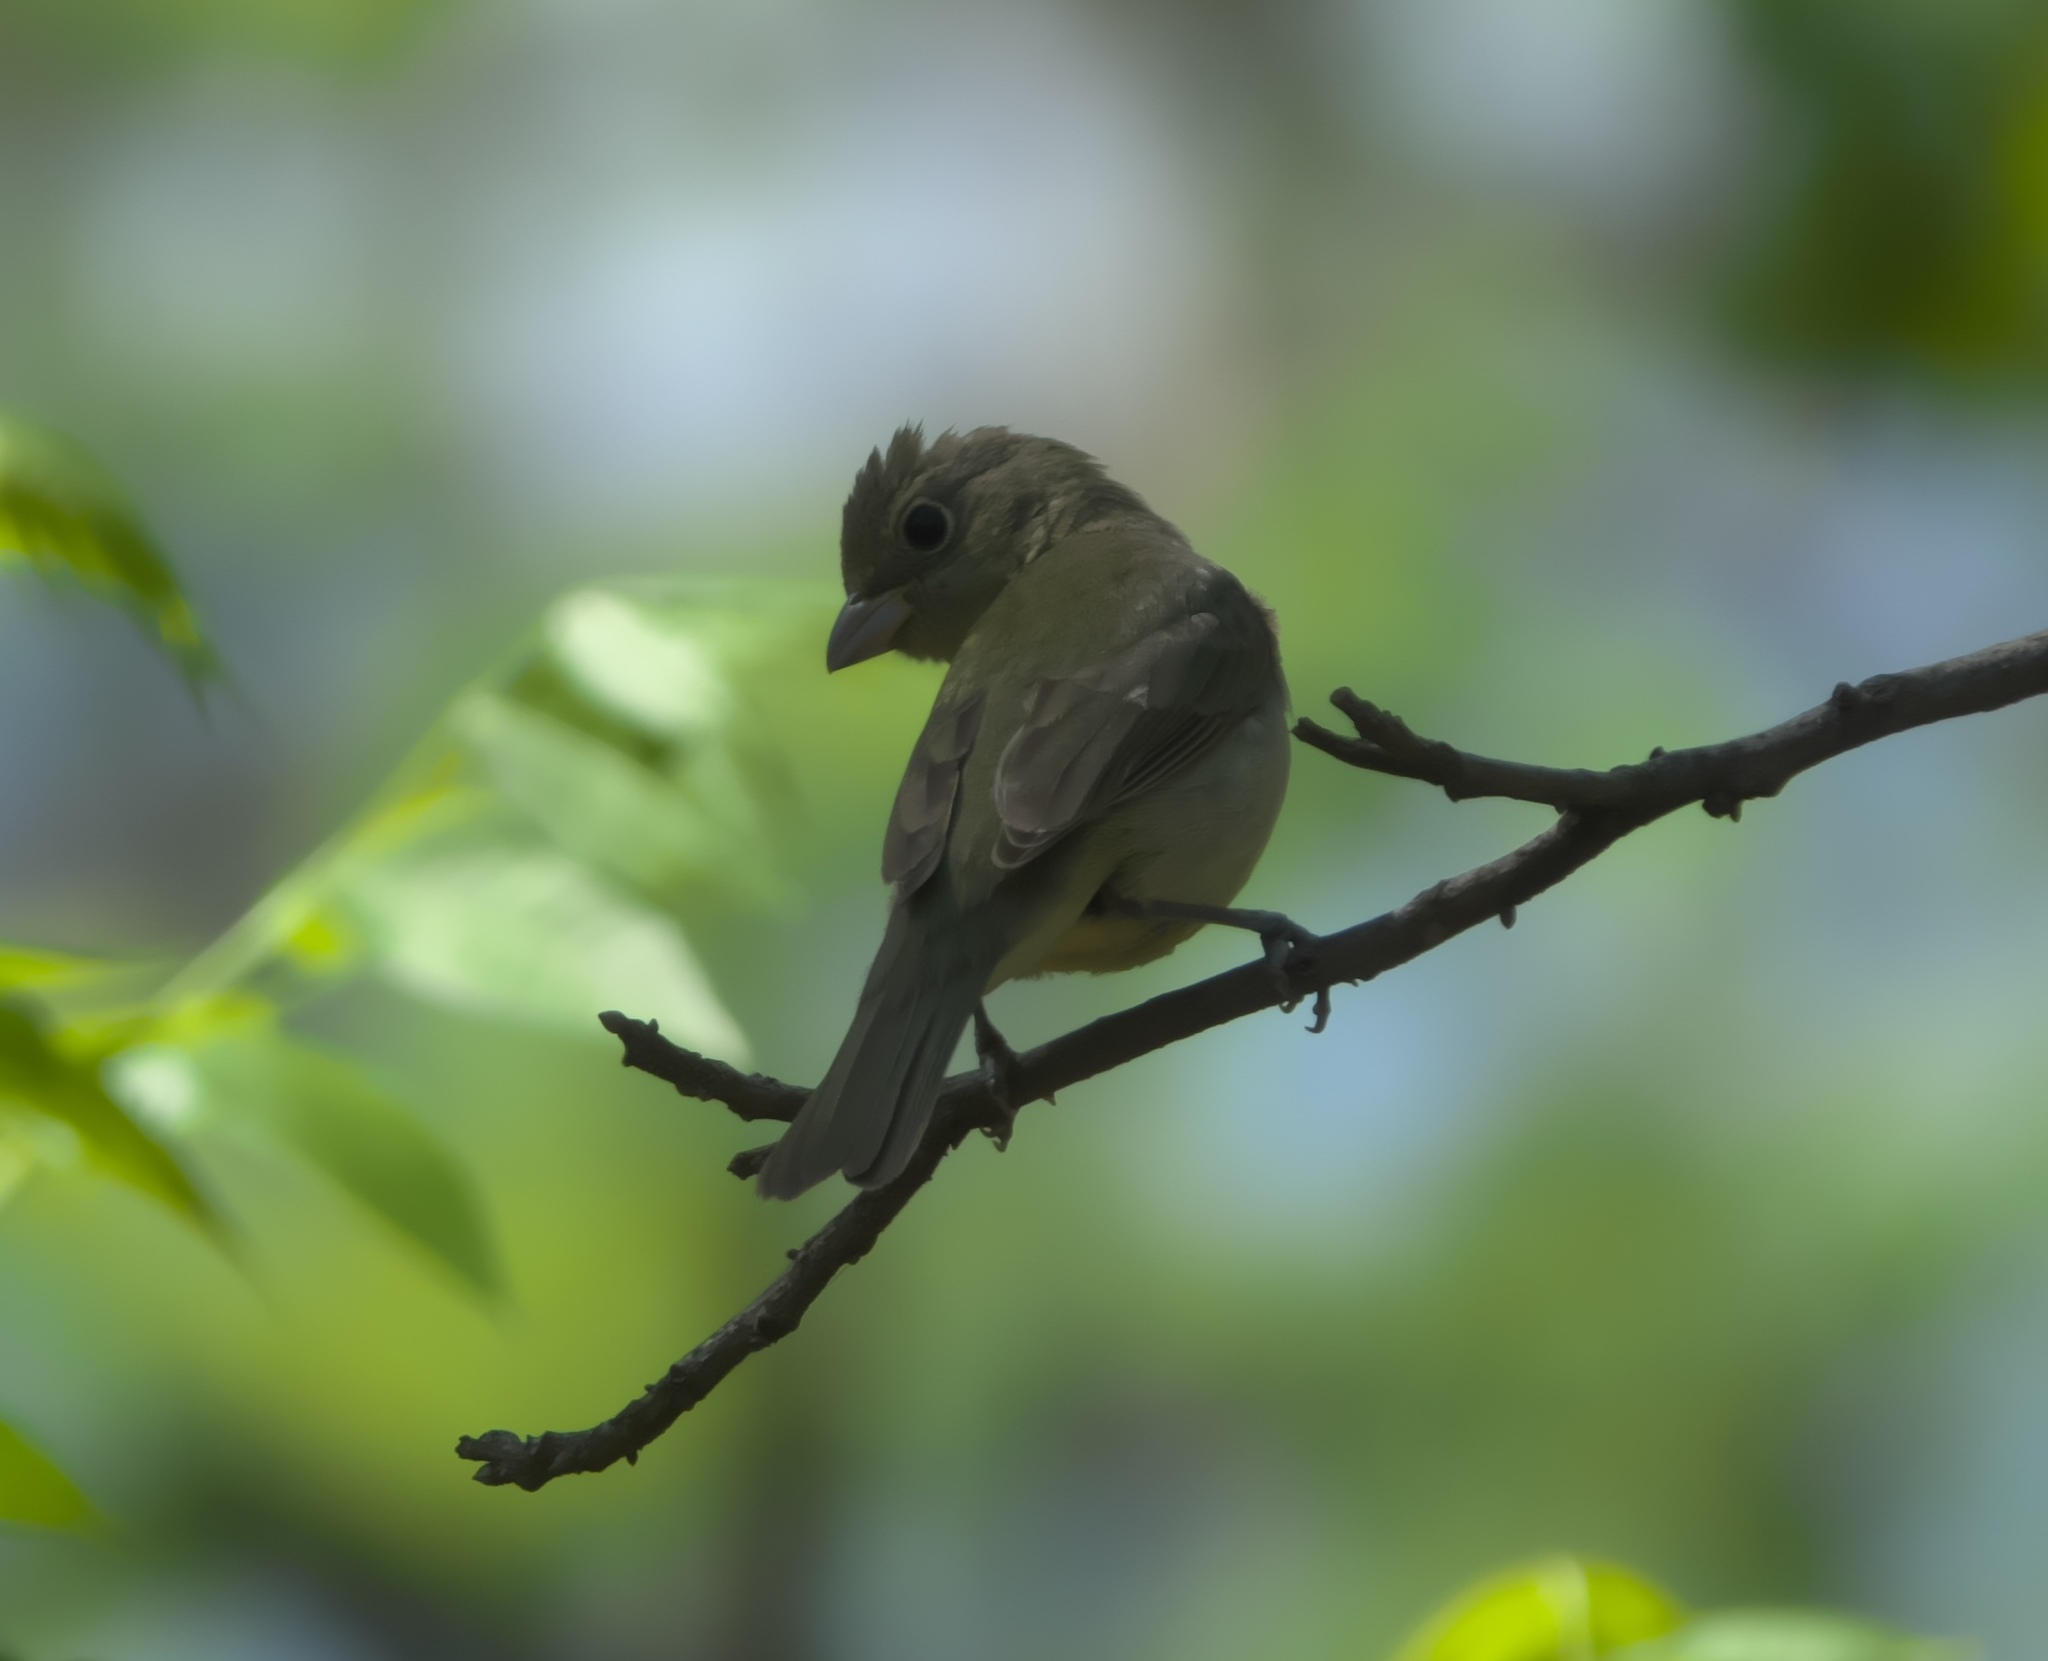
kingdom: Animalia
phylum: Chordata
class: Aves
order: Passeriformes
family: Cardinalidae
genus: Piranga
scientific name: Piranga rubra
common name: Summer tanager
